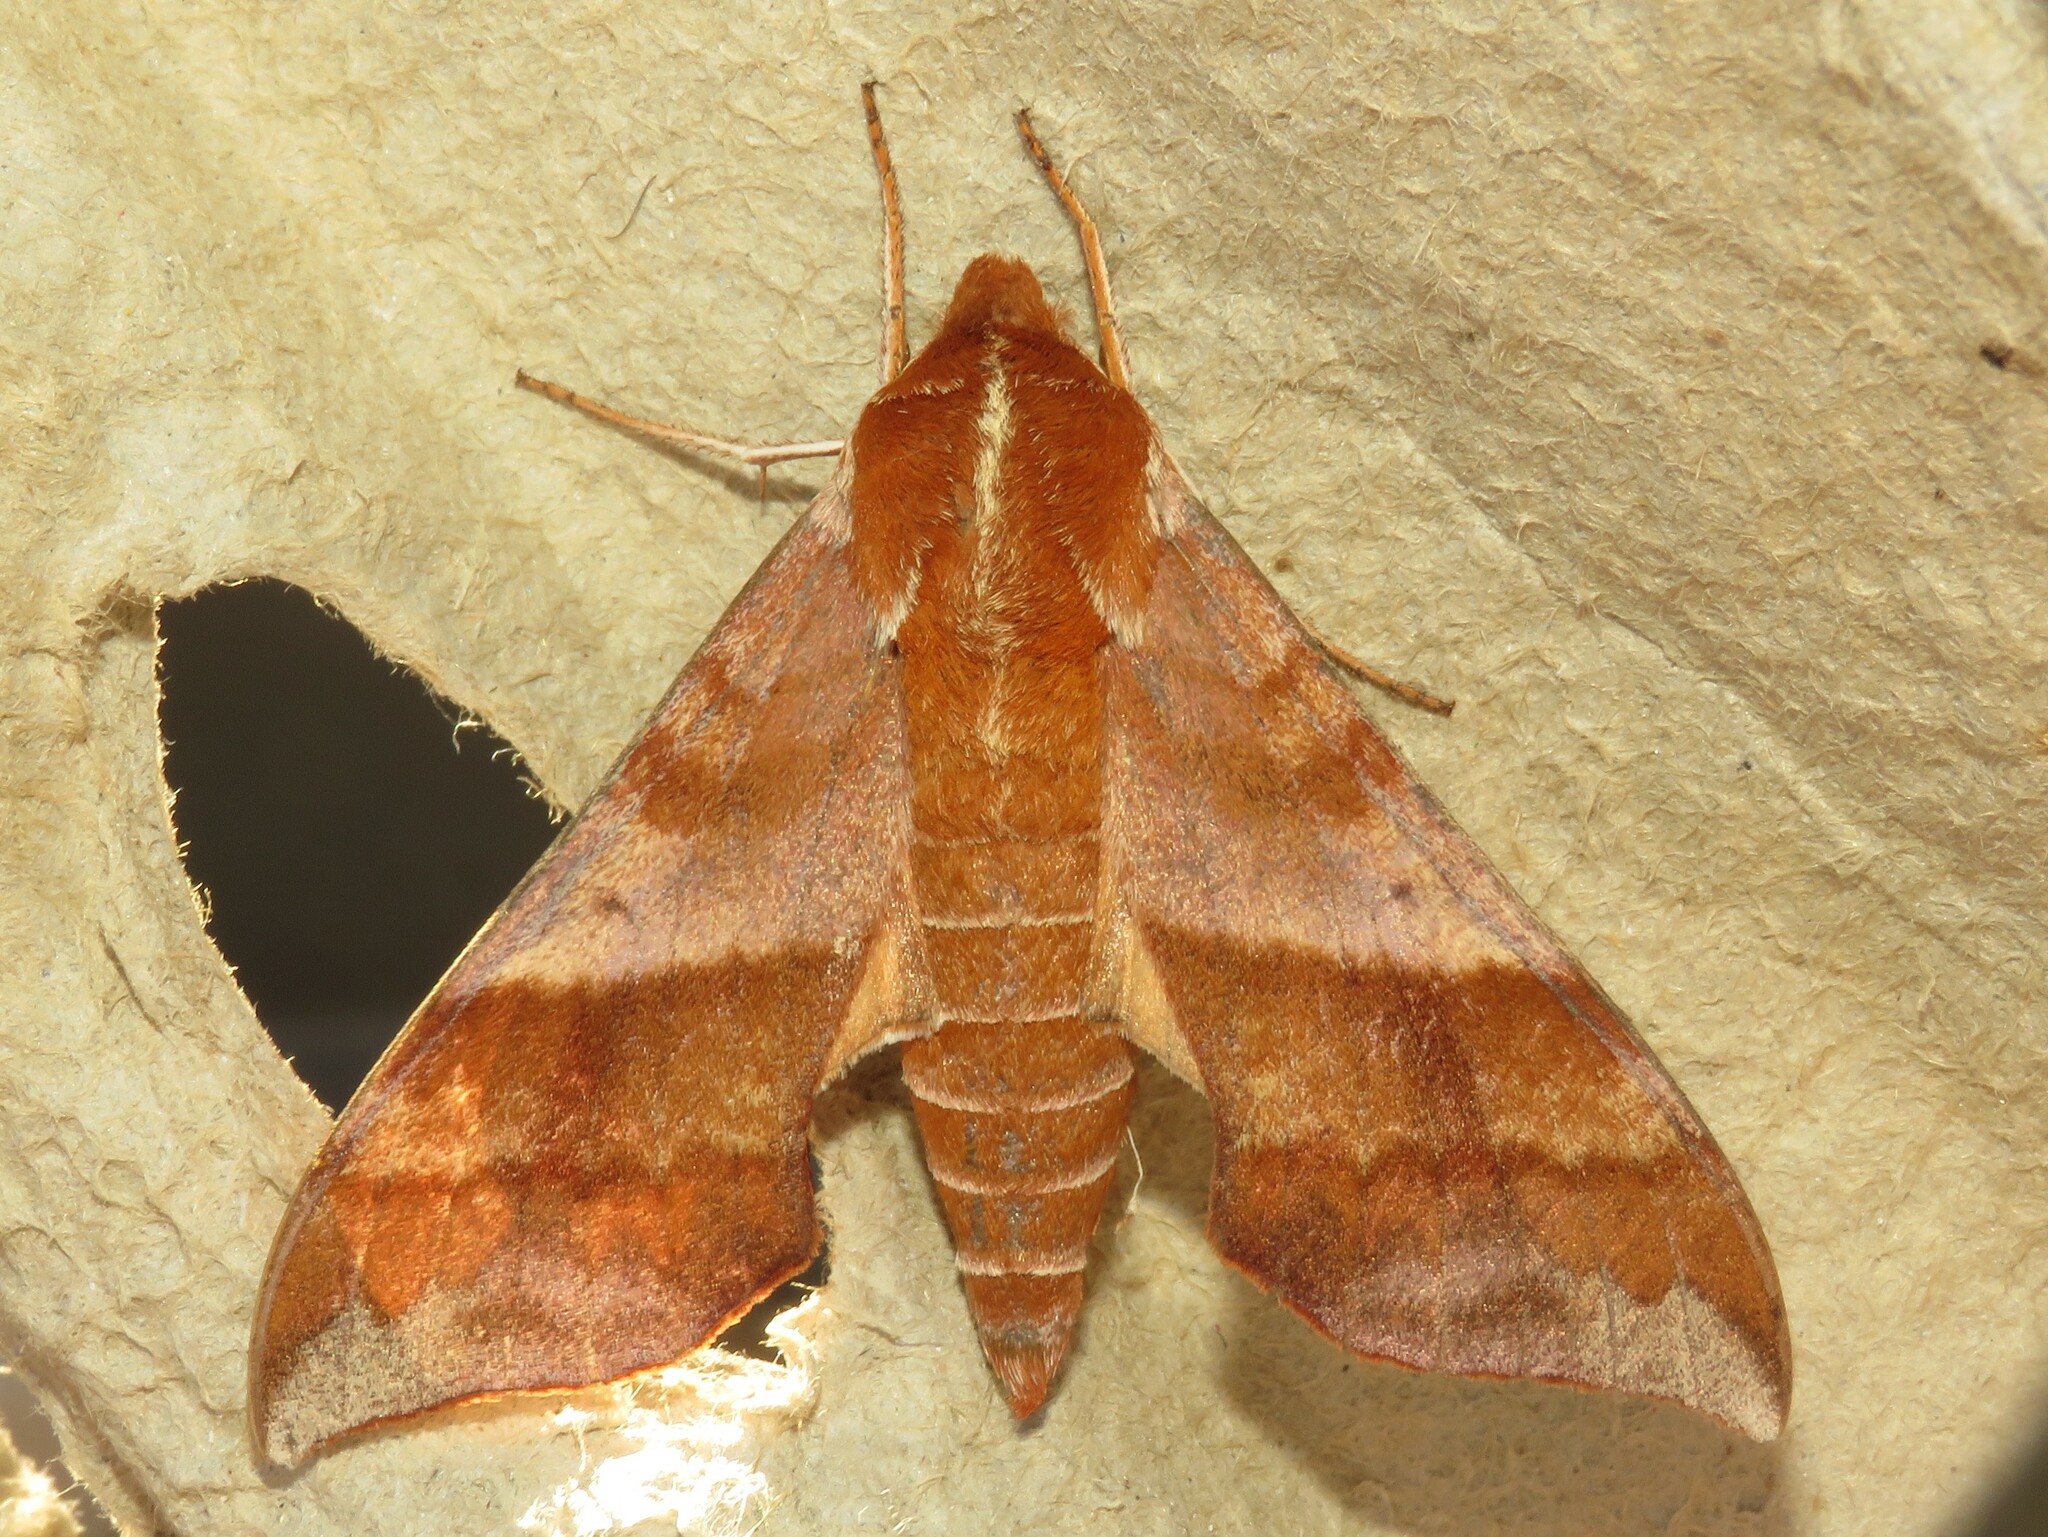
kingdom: Animalia
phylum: Arthropoda
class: Insecta
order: Lepidoptera
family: Sphingidae
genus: Darapsa
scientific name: Darapsa choerilus
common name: Azalea sphinx
